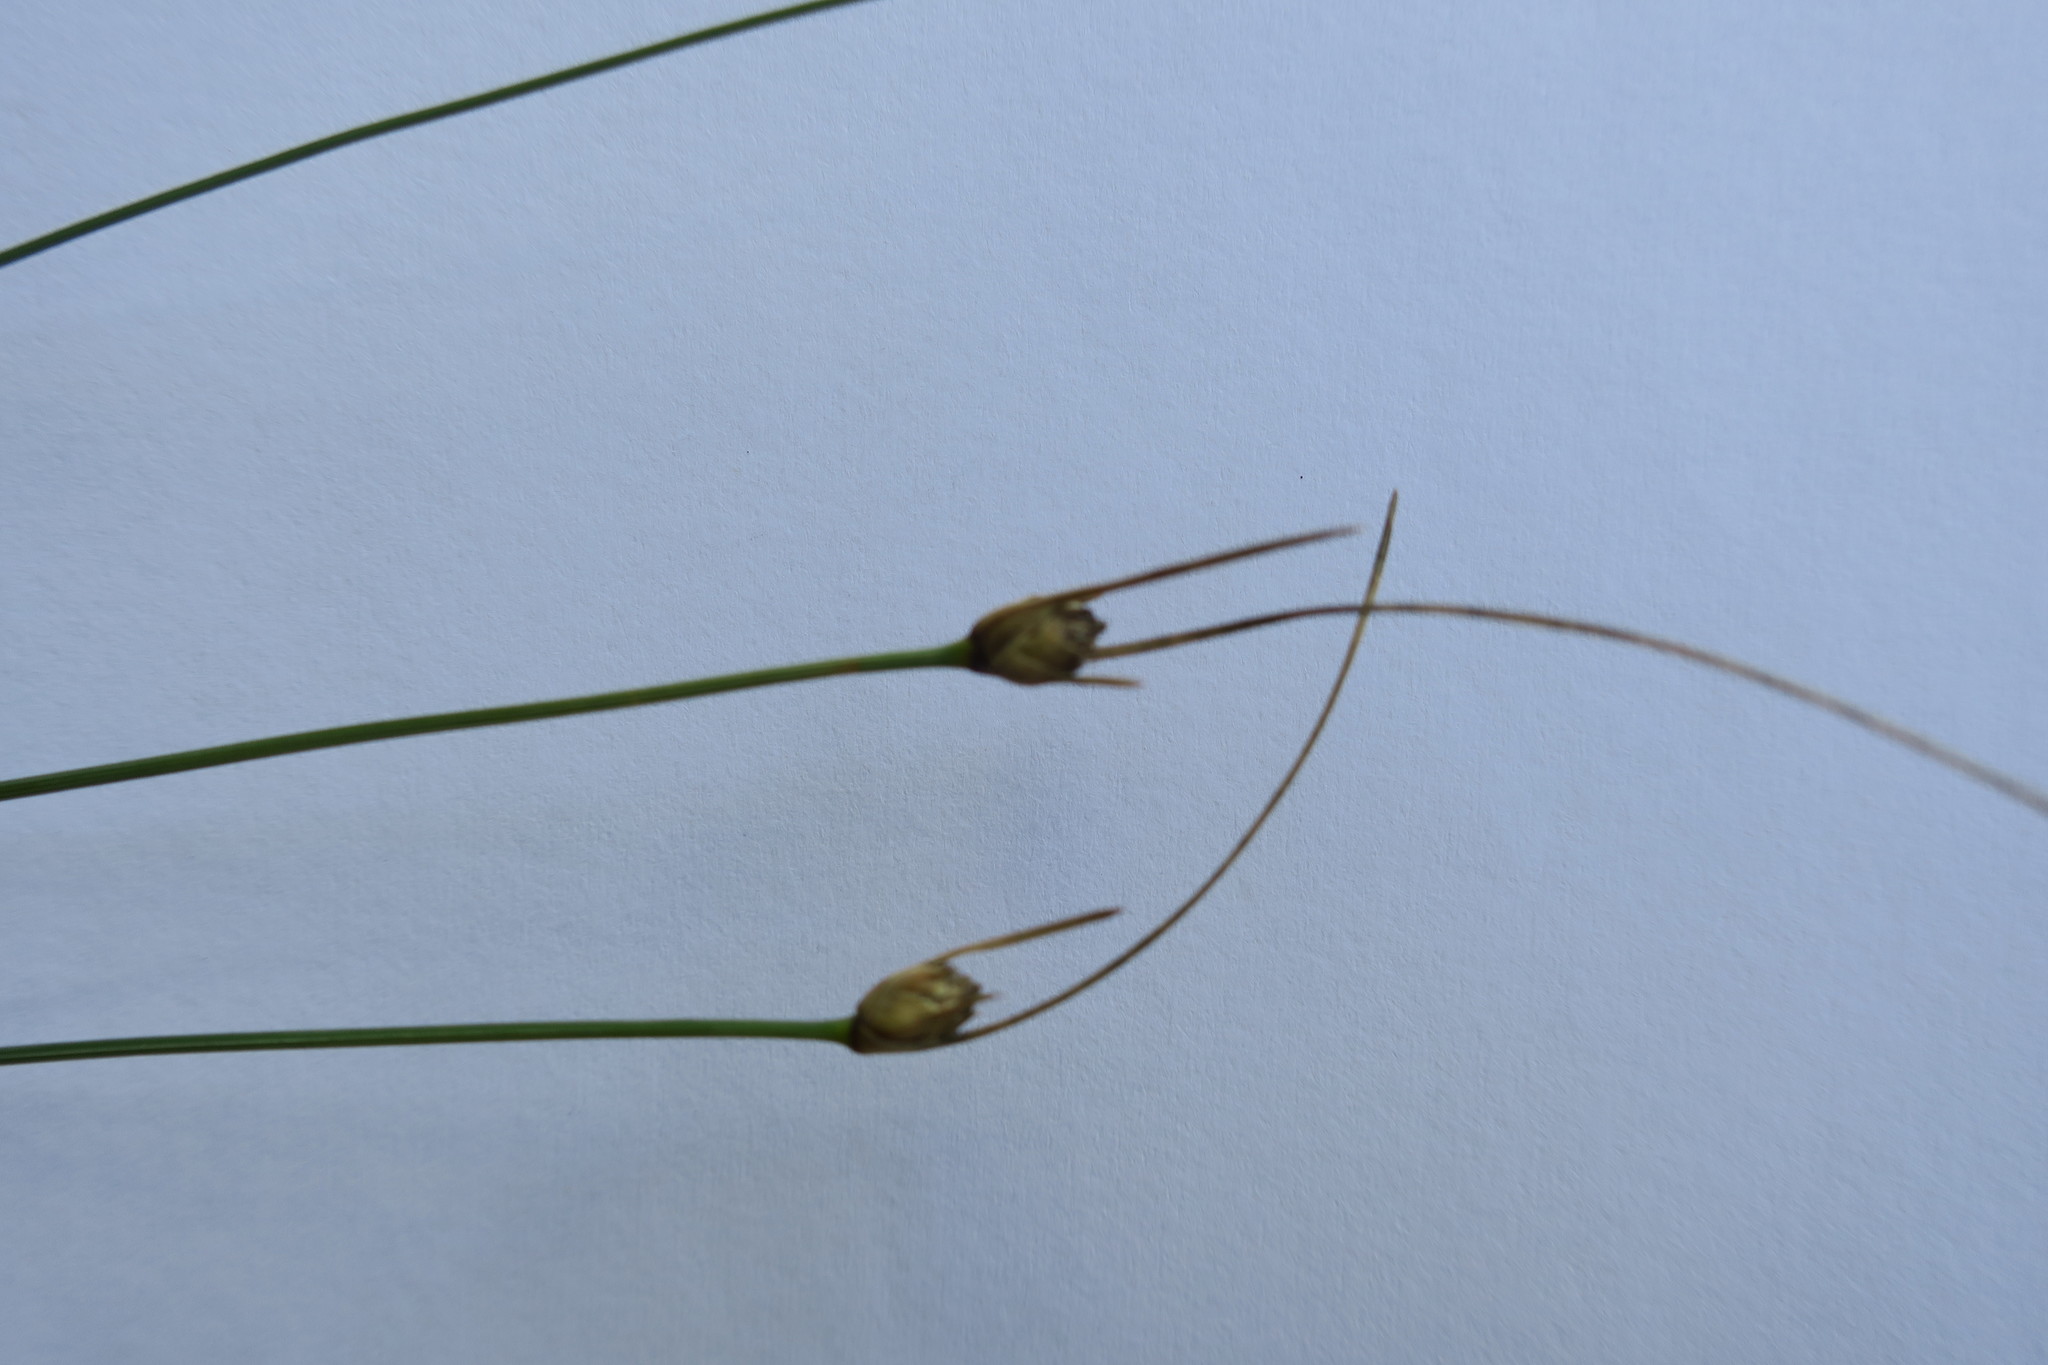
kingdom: Plantae
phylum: Tracheophyta
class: Liliopsida
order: Poales
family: Cyperaceae
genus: Ficinia
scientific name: Ficinia dunensis
